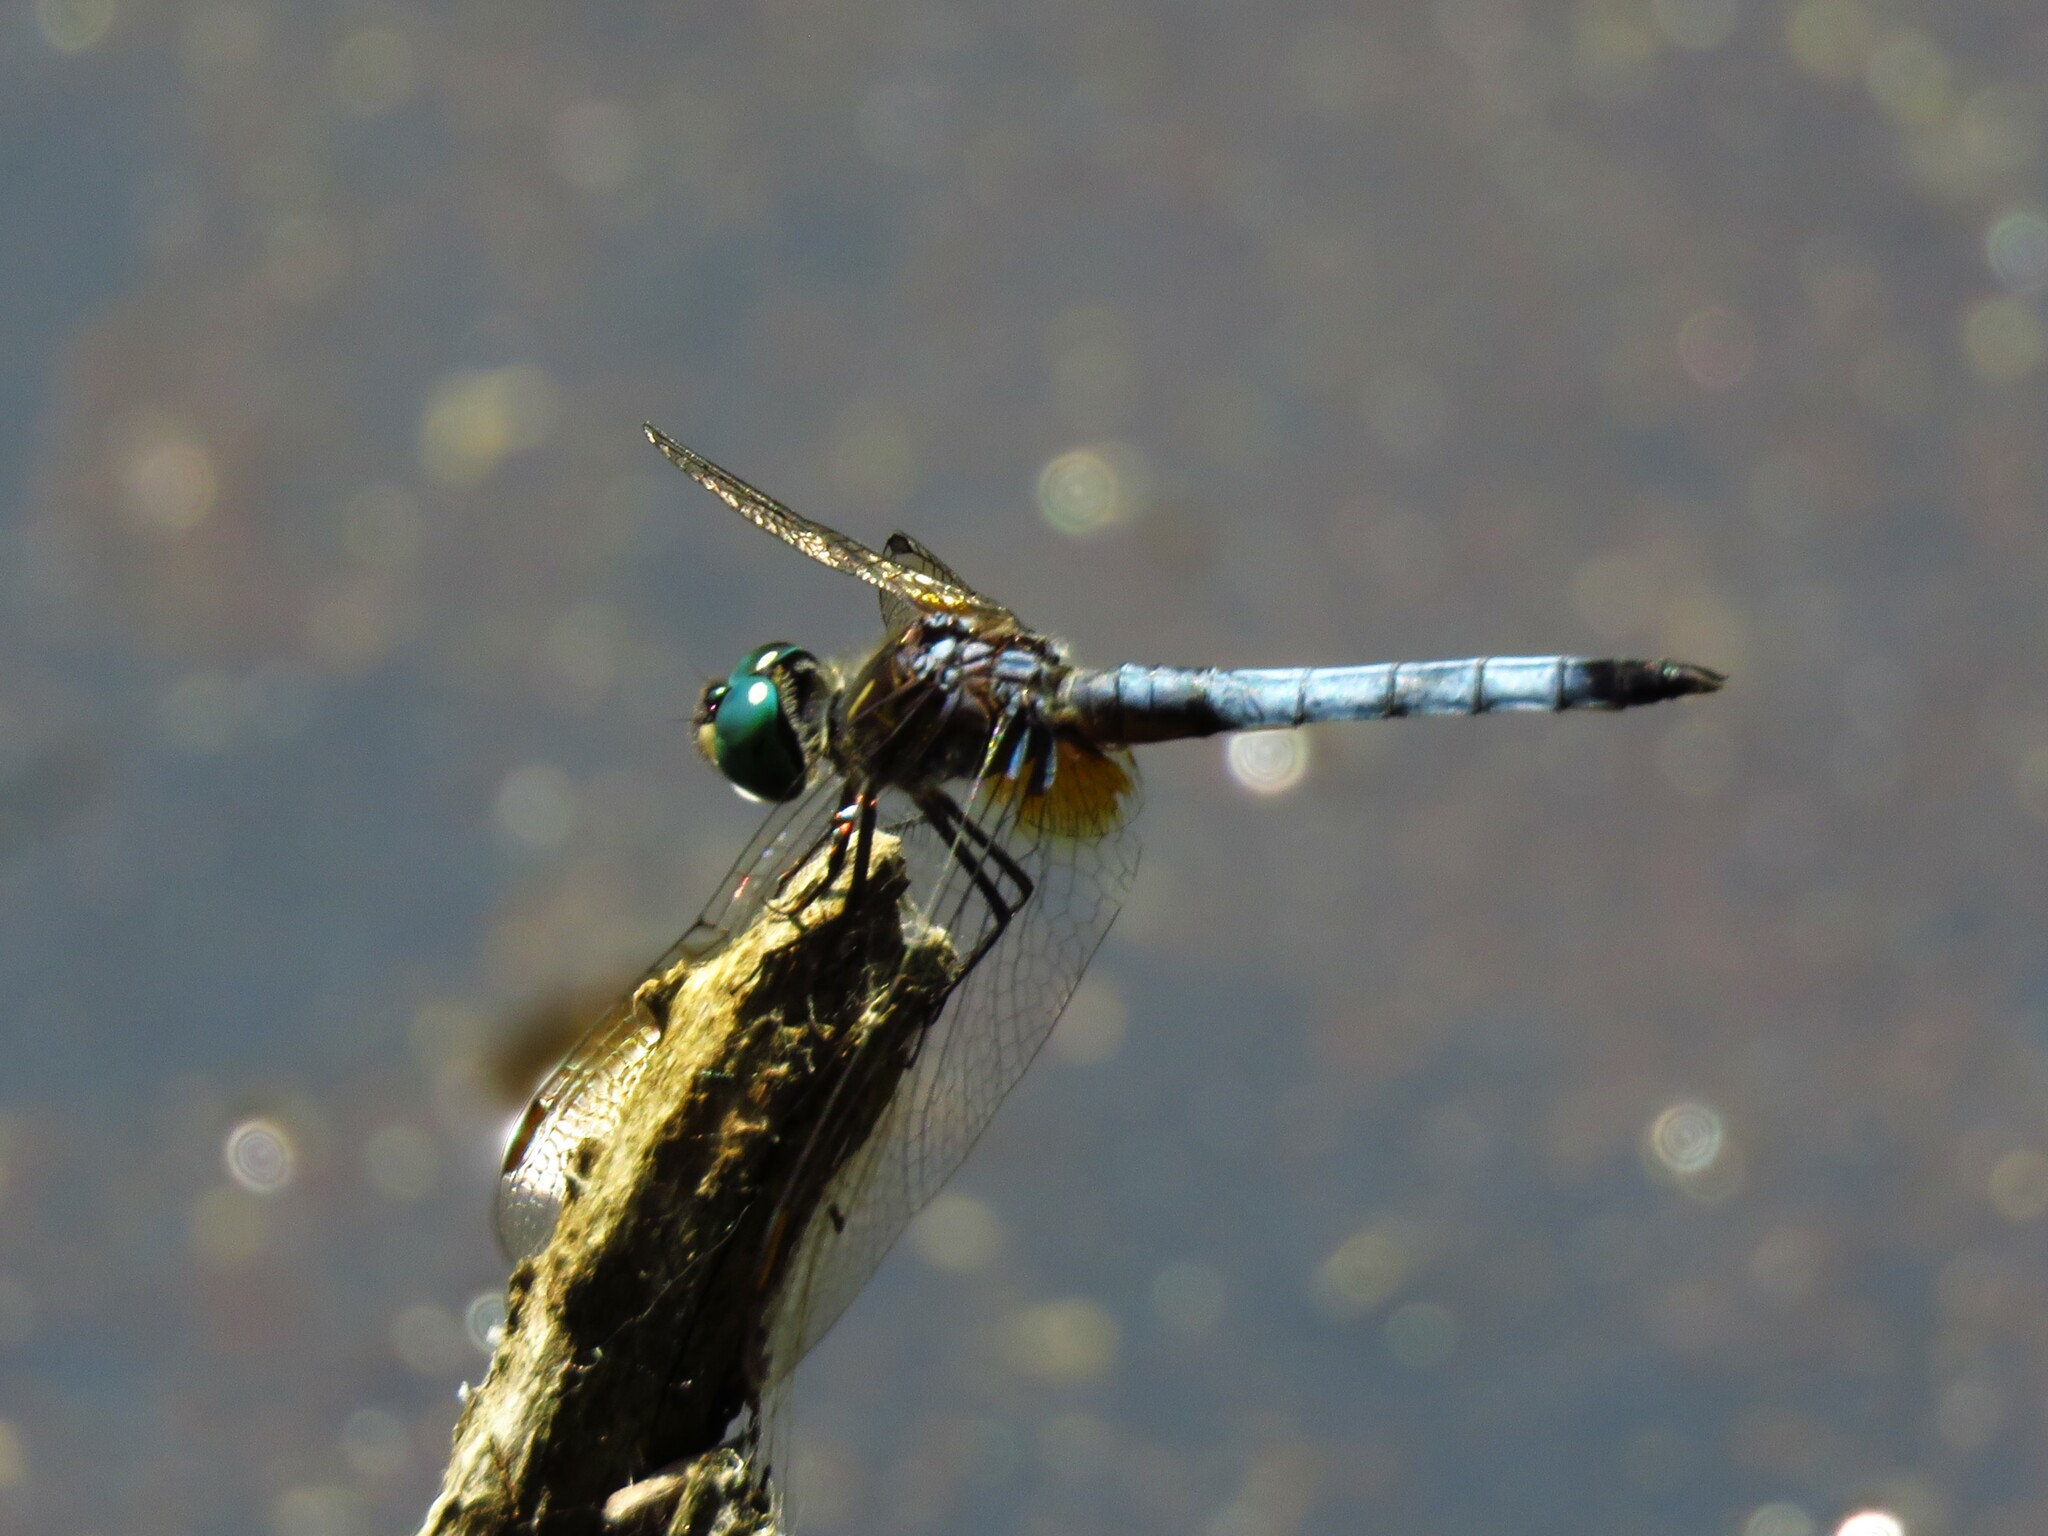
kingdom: Animalia
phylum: Arthropoda
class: Insecta
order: Odonata
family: Libellulidae
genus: Pachydiplax
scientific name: Pachydiplax longipennis
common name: Blue dasher
